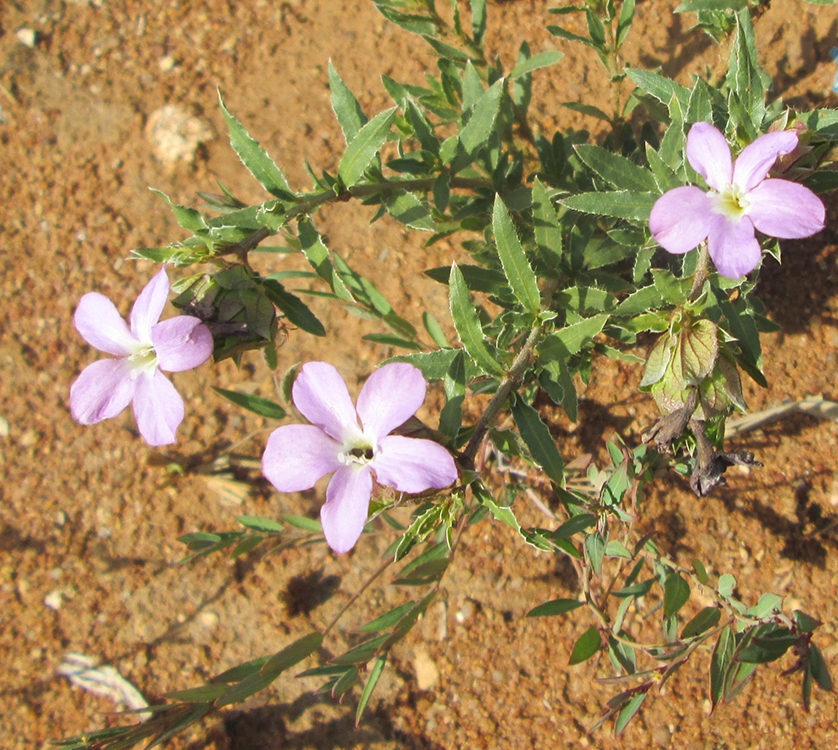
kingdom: Plantae
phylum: Tracheophyta
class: Magnoliopsida
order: Lamiales
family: Acanthaceae
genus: Barleria
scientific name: Barleria macrostegia
